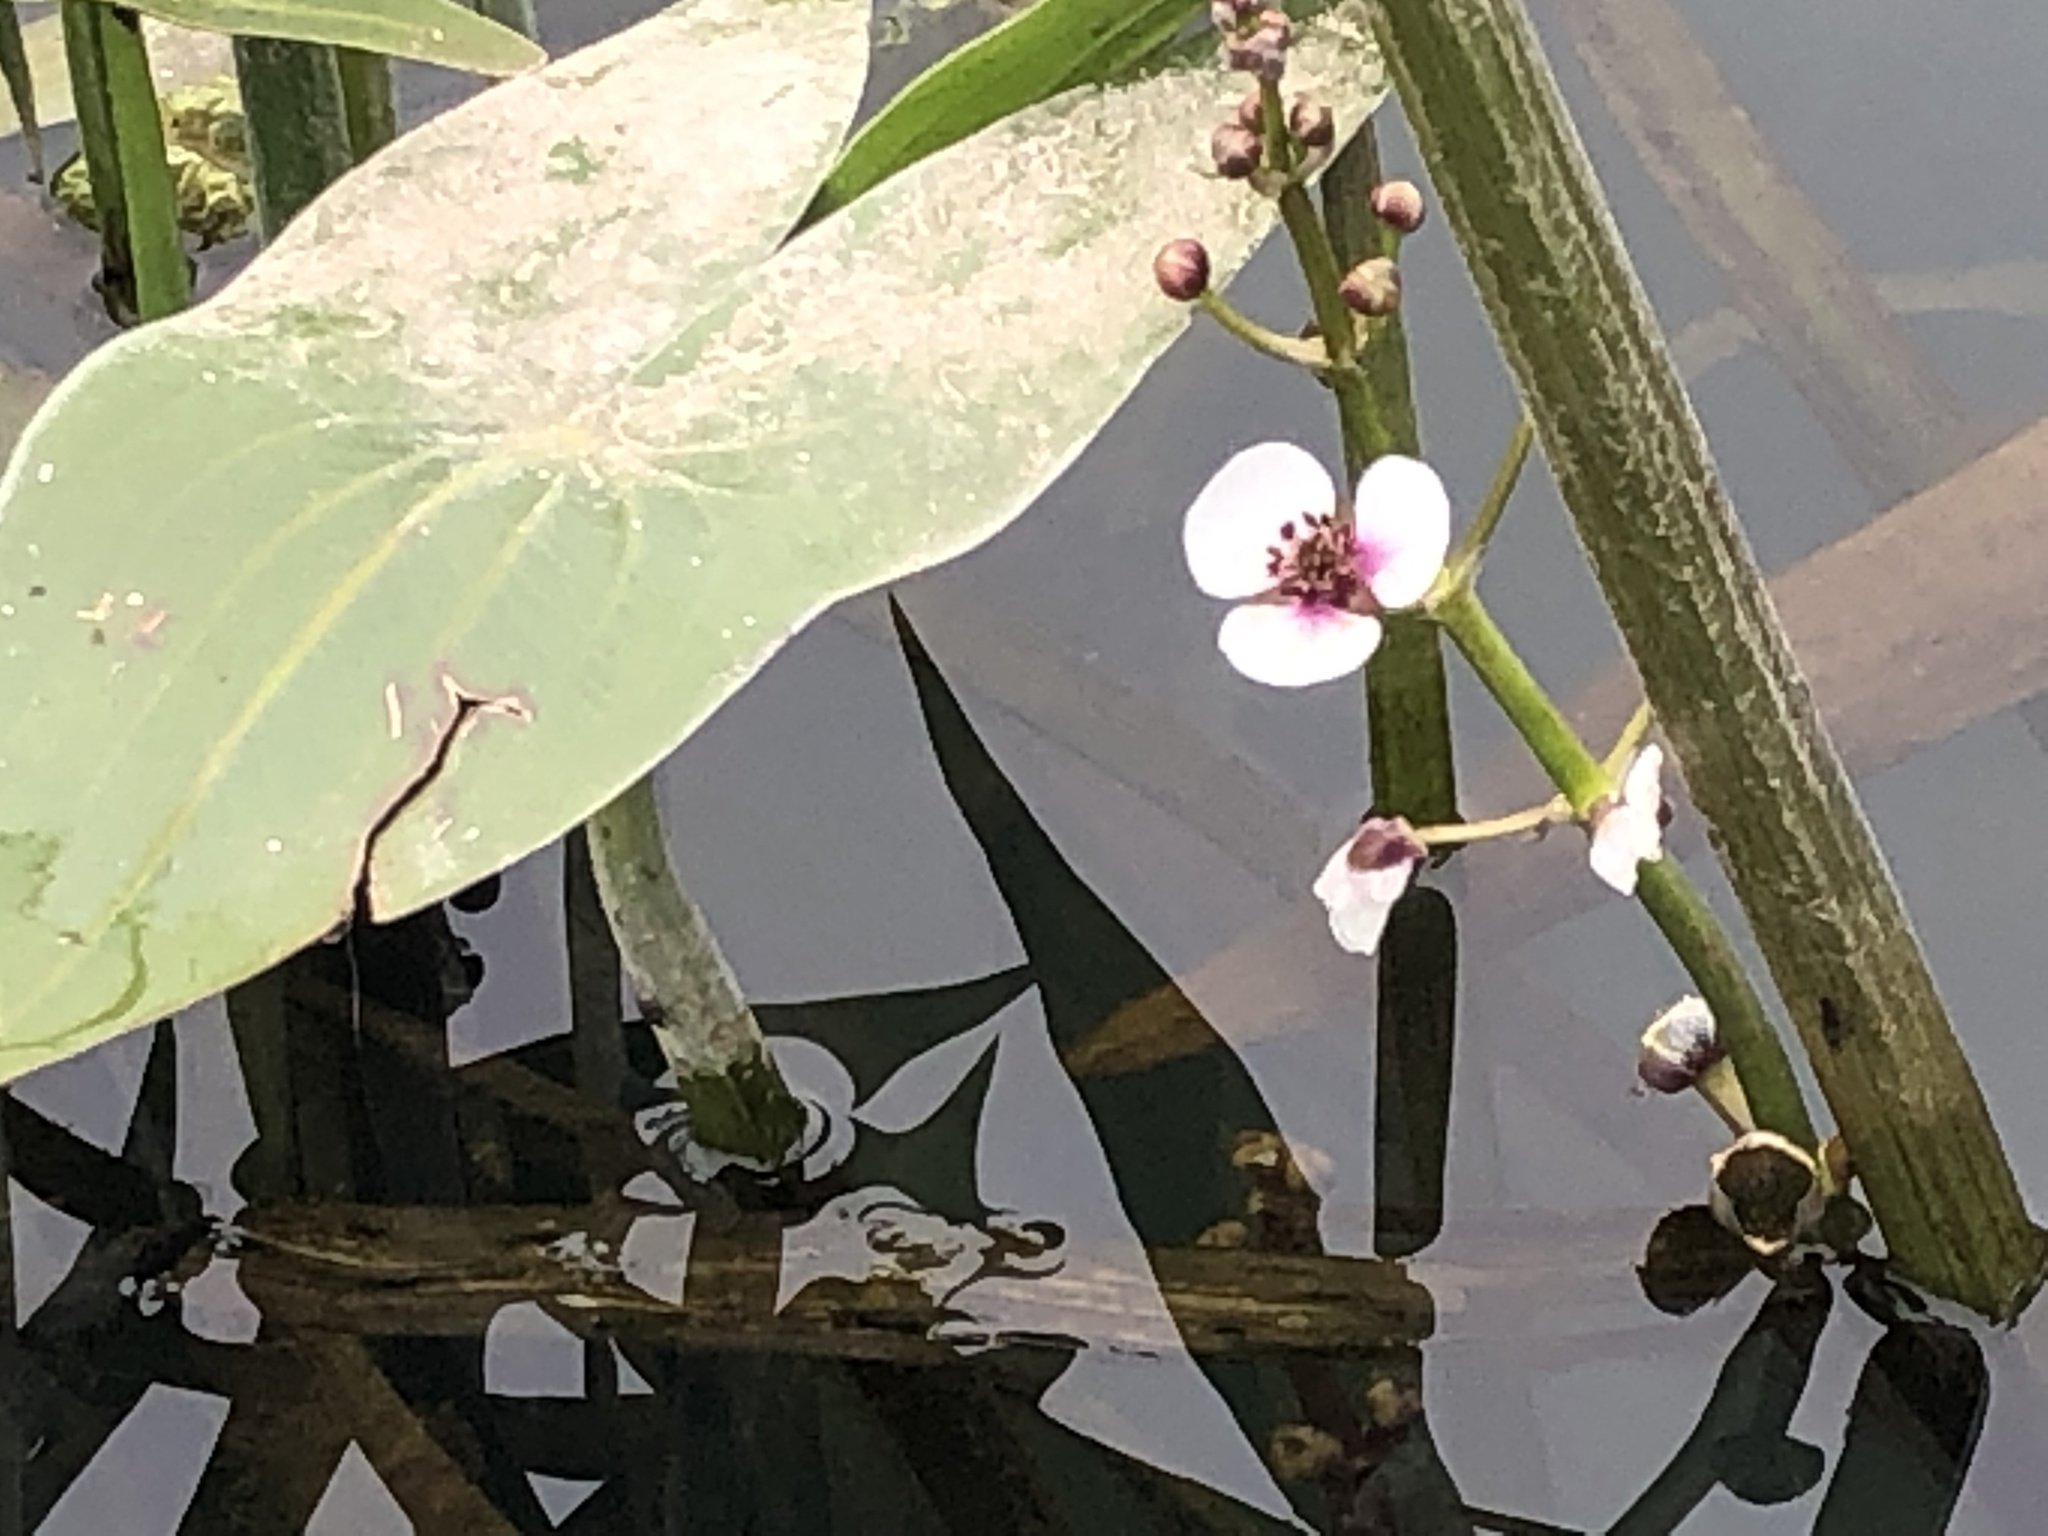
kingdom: Plantae
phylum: Tracheophyta
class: Liliopsida
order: Alismatales
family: Alismataceae
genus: Sagittaria
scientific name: Sagittaria sagittifolia
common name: Arrowhead
